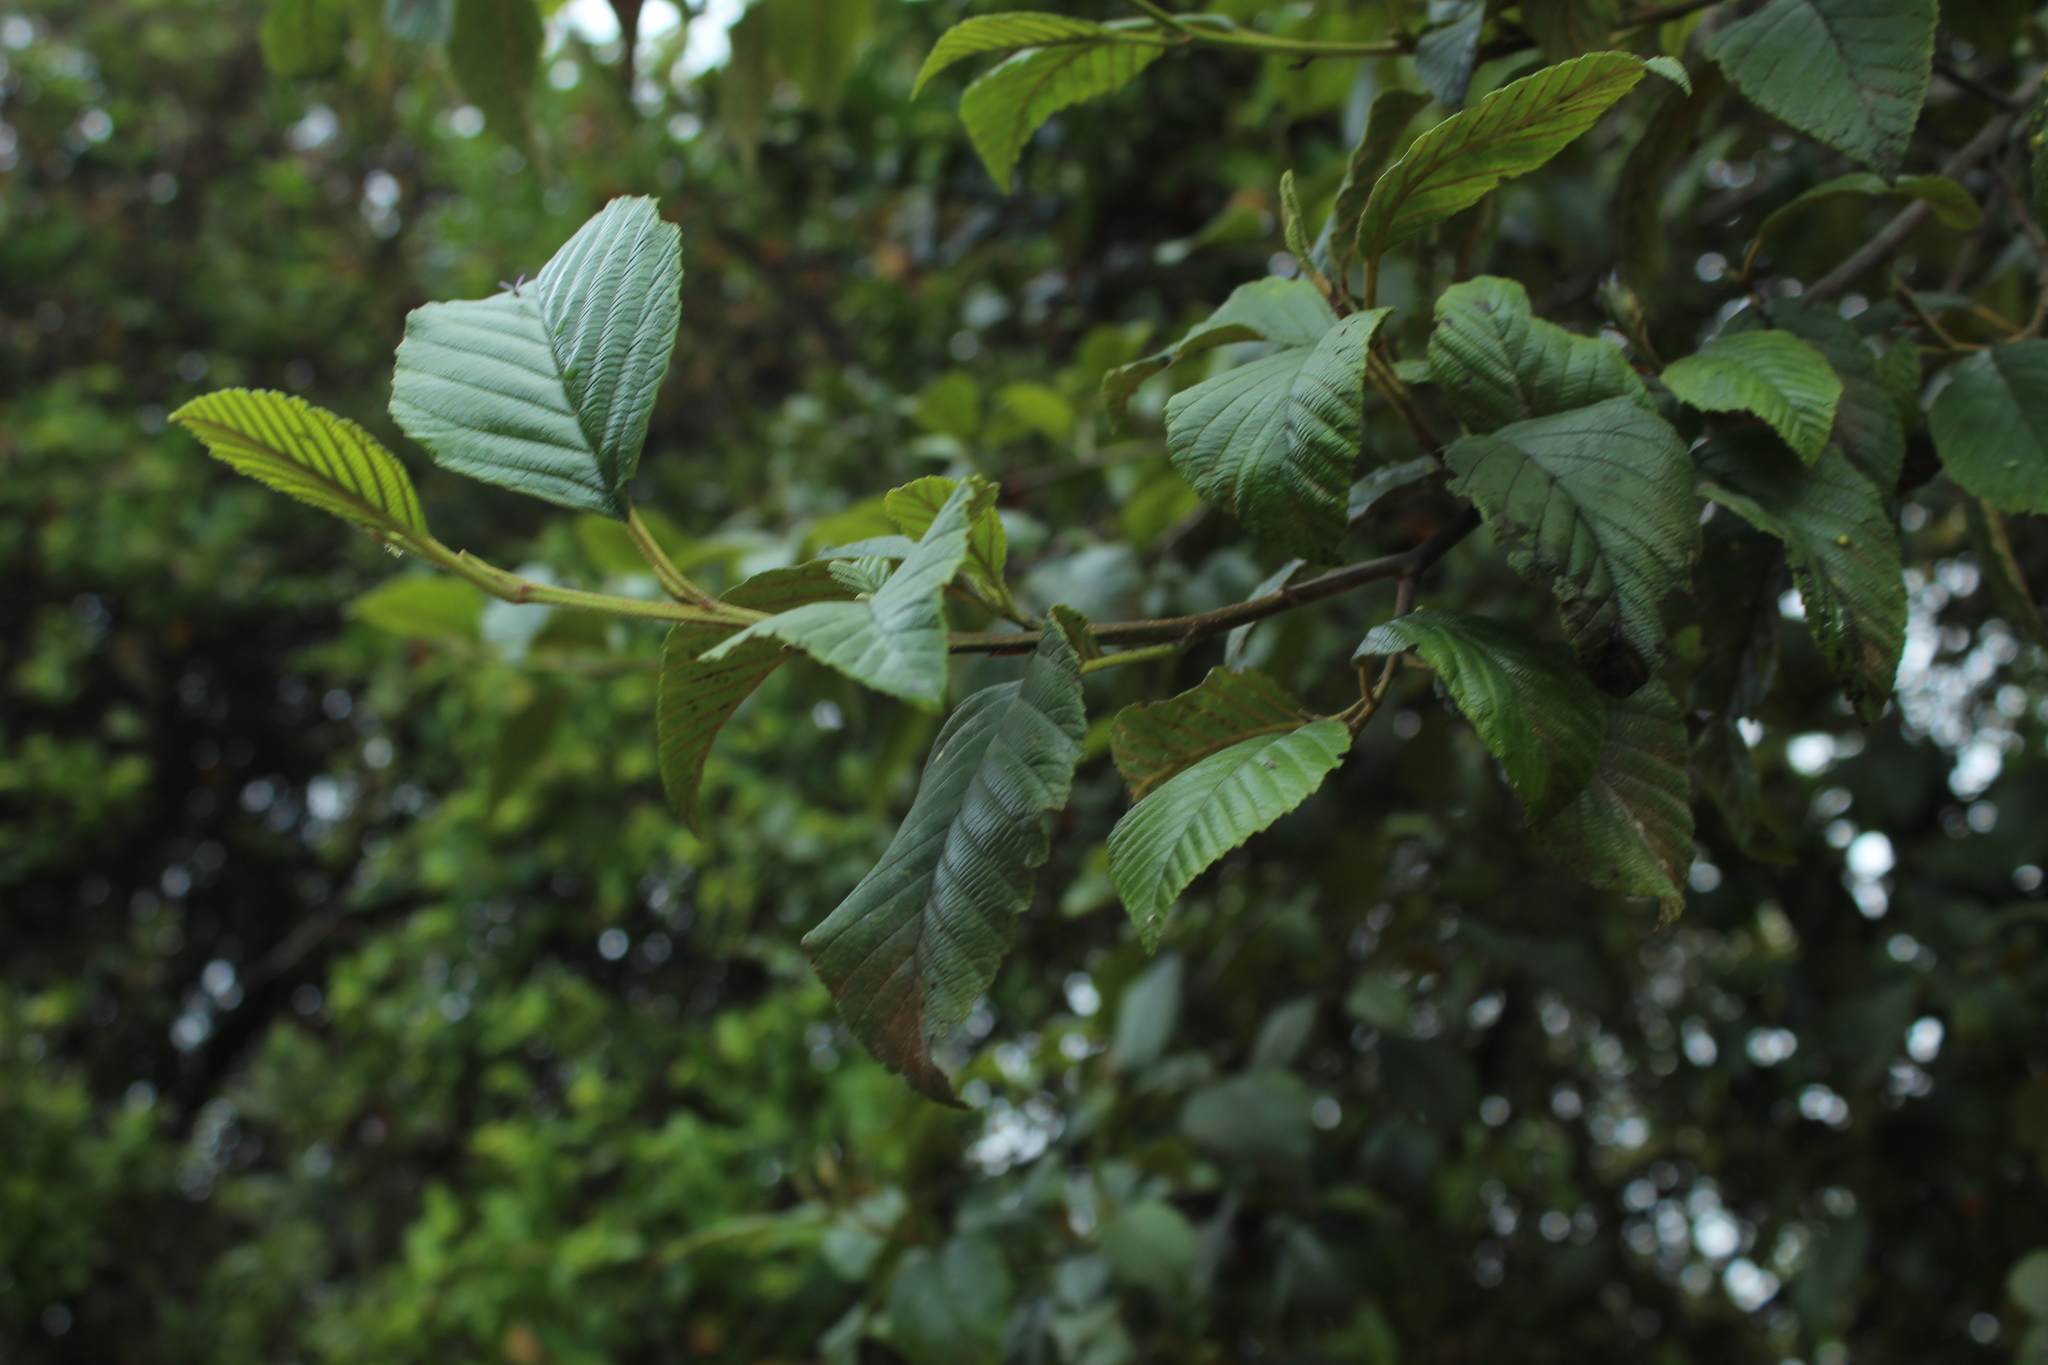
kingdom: Plantae
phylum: Tracheophyta
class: Magnoliopsida
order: Fagales
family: Betulaceae
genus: Alnus
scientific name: Alnus acuminata
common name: Alder
